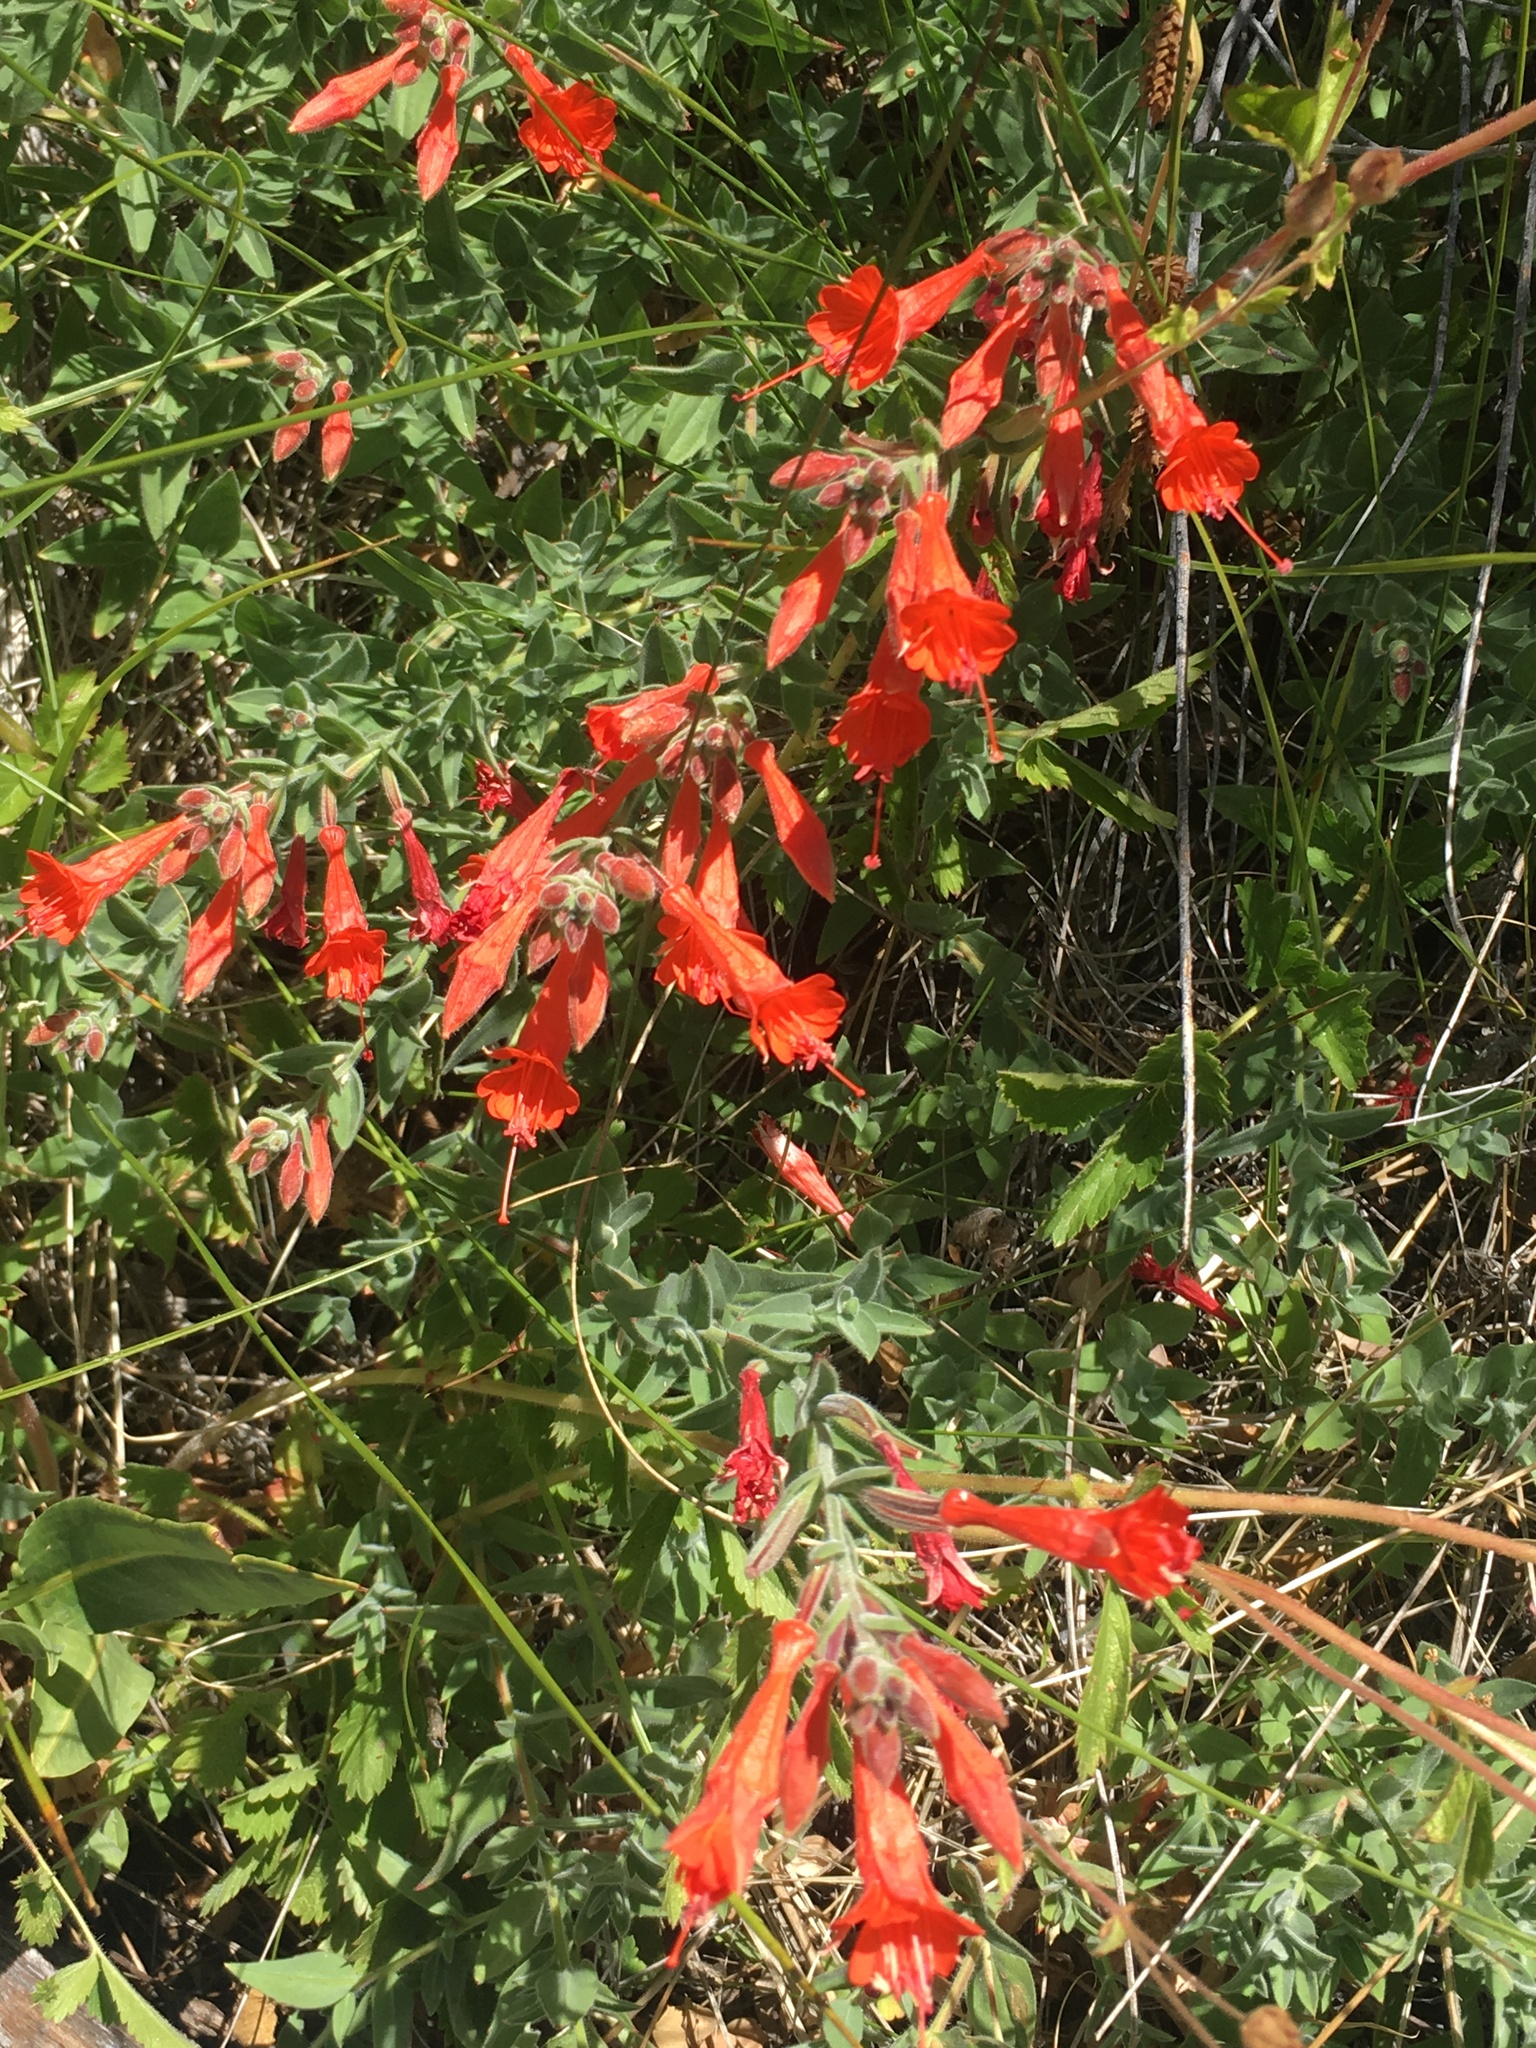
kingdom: Plantae
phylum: Tracheophyta
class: Magnoliopsida
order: Myrtales
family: Onagraceae
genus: Epilobium
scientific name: Epilobium canum
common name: California-fuchsia
